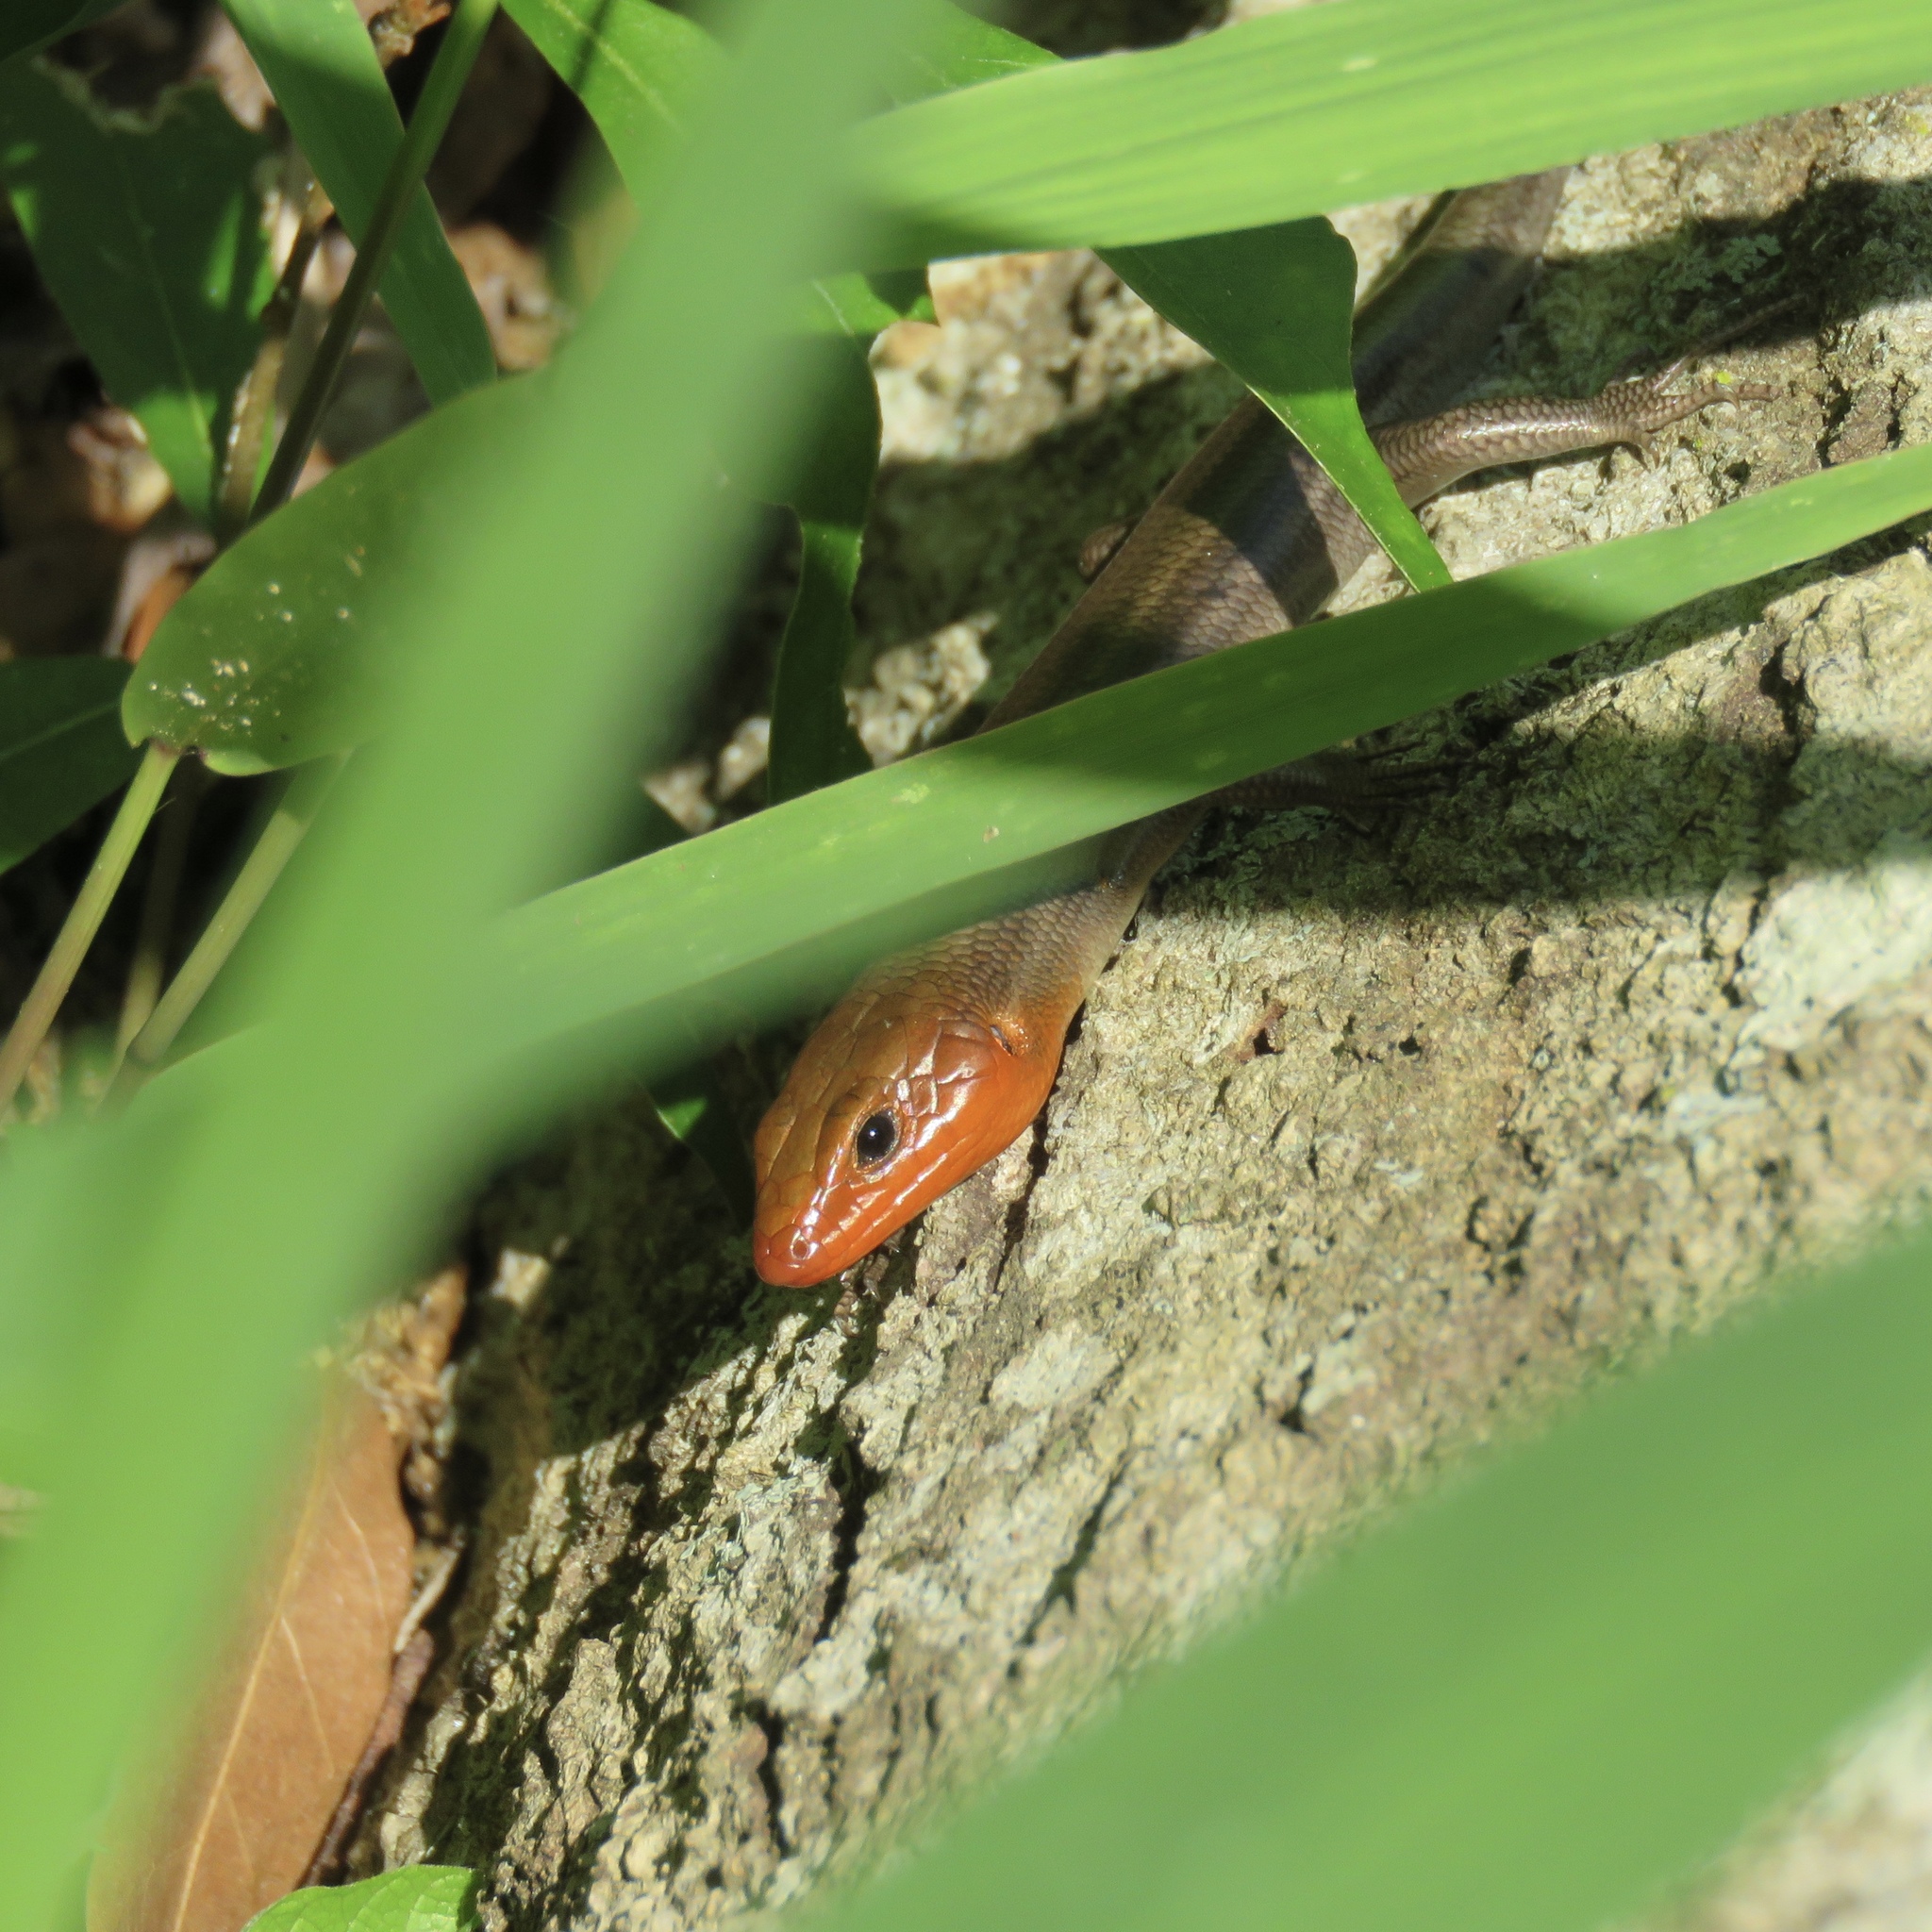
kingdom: Animalia
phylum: Chordata
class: Squamata
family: Scincidae
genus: Plestiodon
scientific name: Plestiodon fasciatus
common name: Five-lined skink
